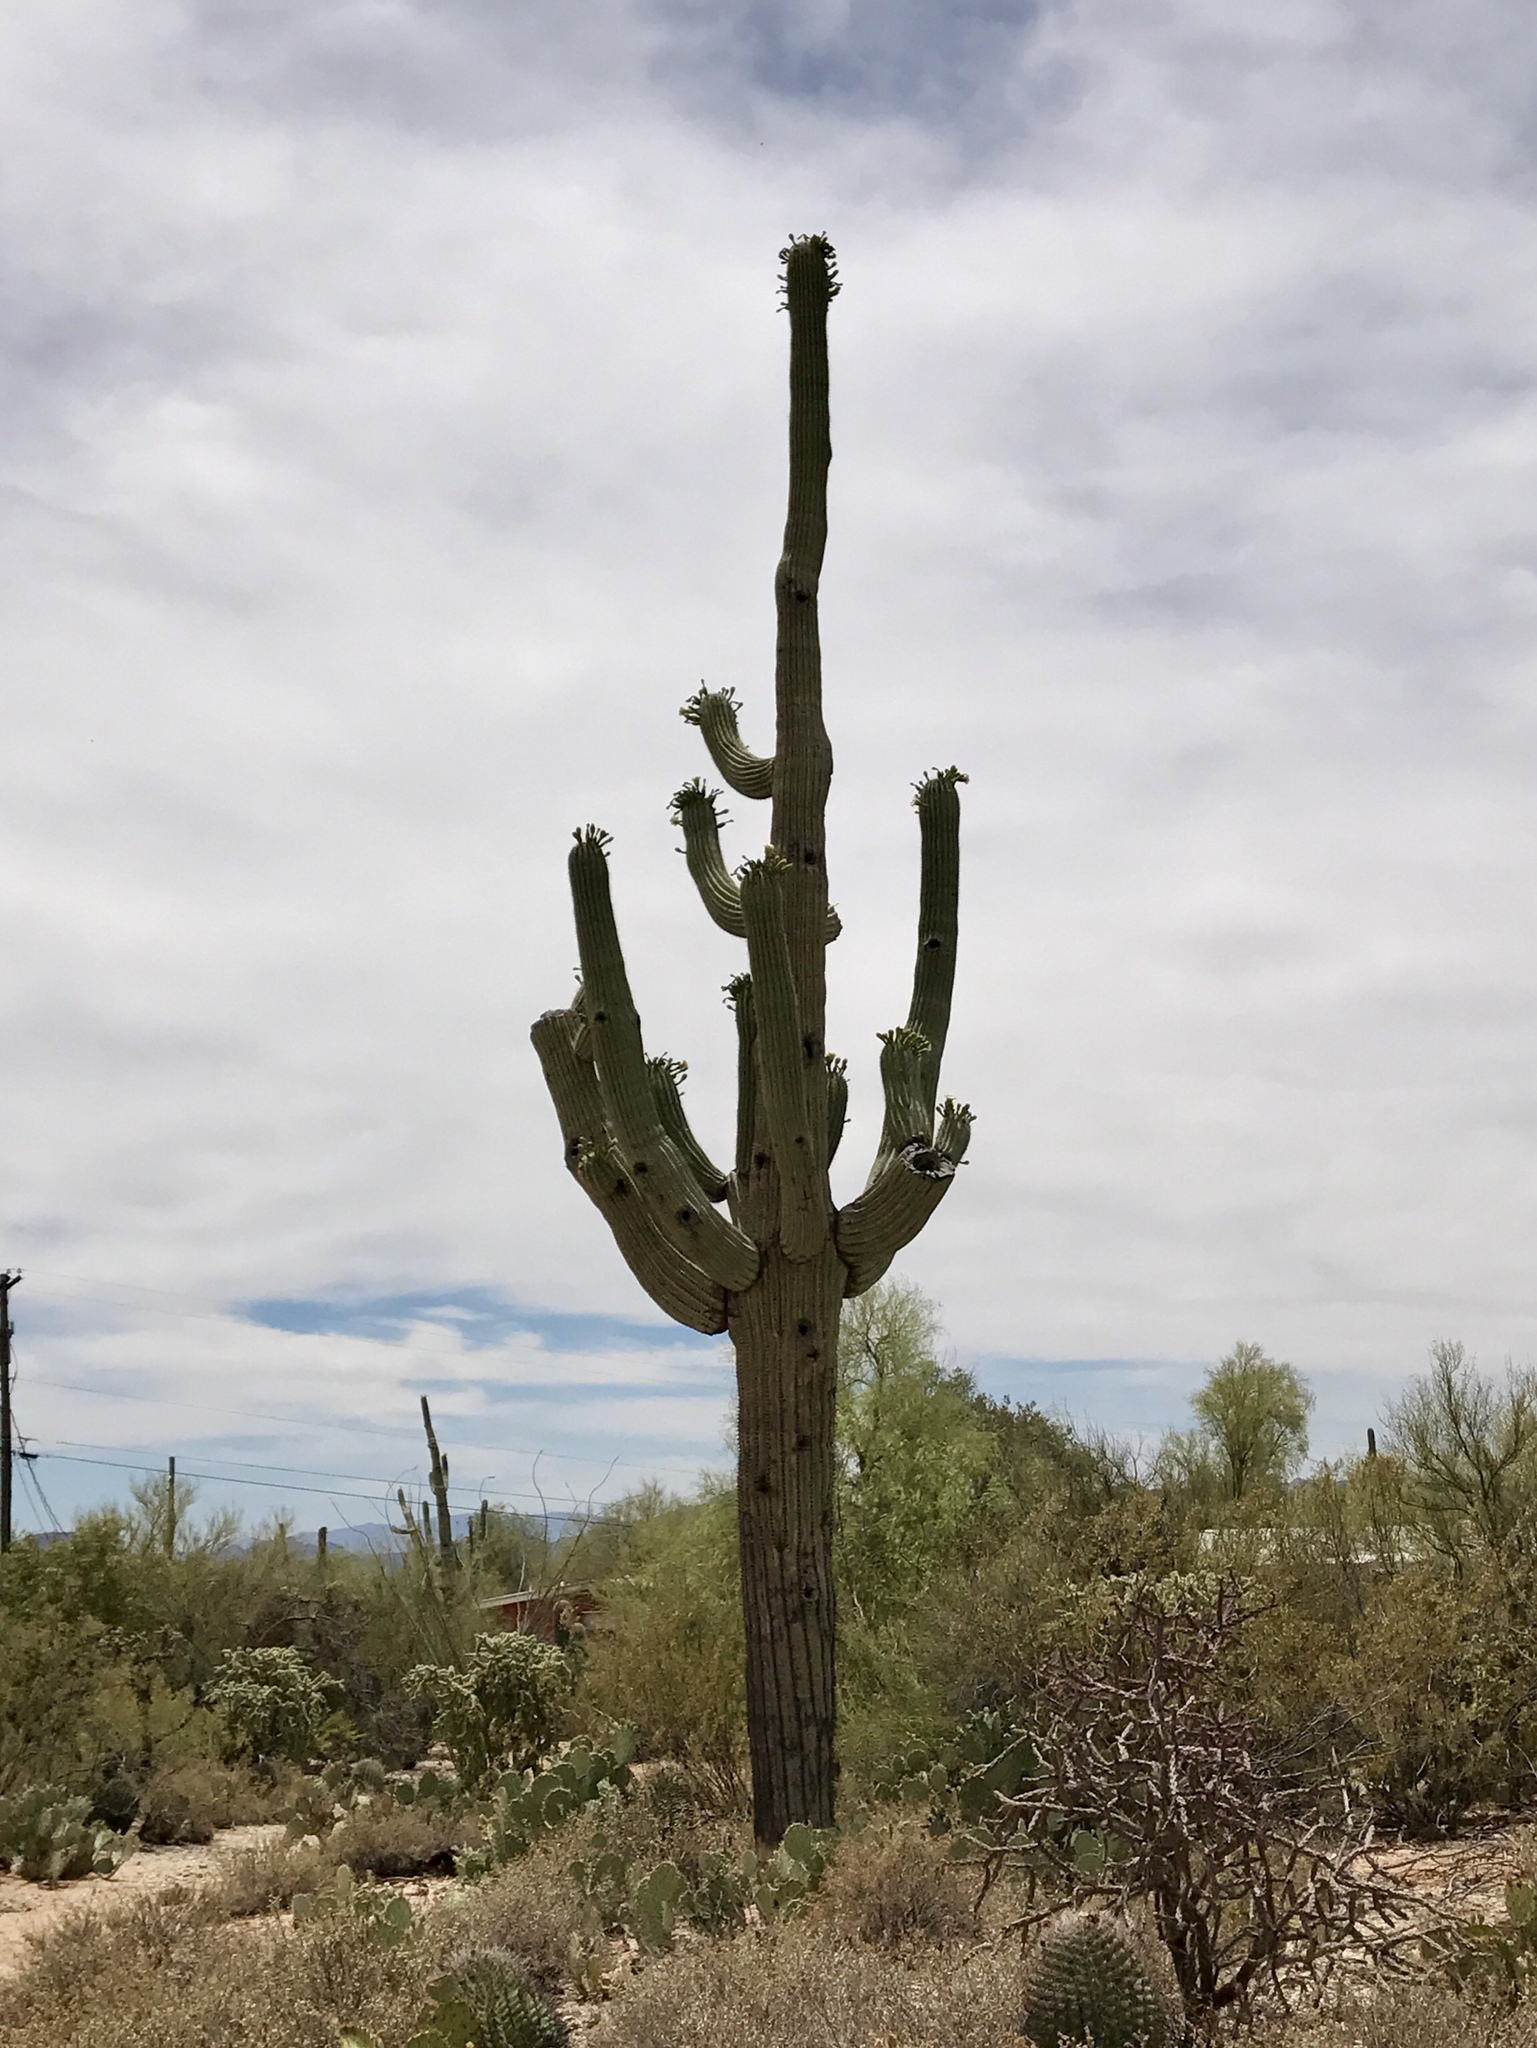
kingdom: Plantae
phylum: Tracheophyta
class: Magnoliopsida
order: Caryophyllales
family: Cactaceae
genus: Carnegiea
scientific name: Carnegiea gigantea
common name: Saguaro
